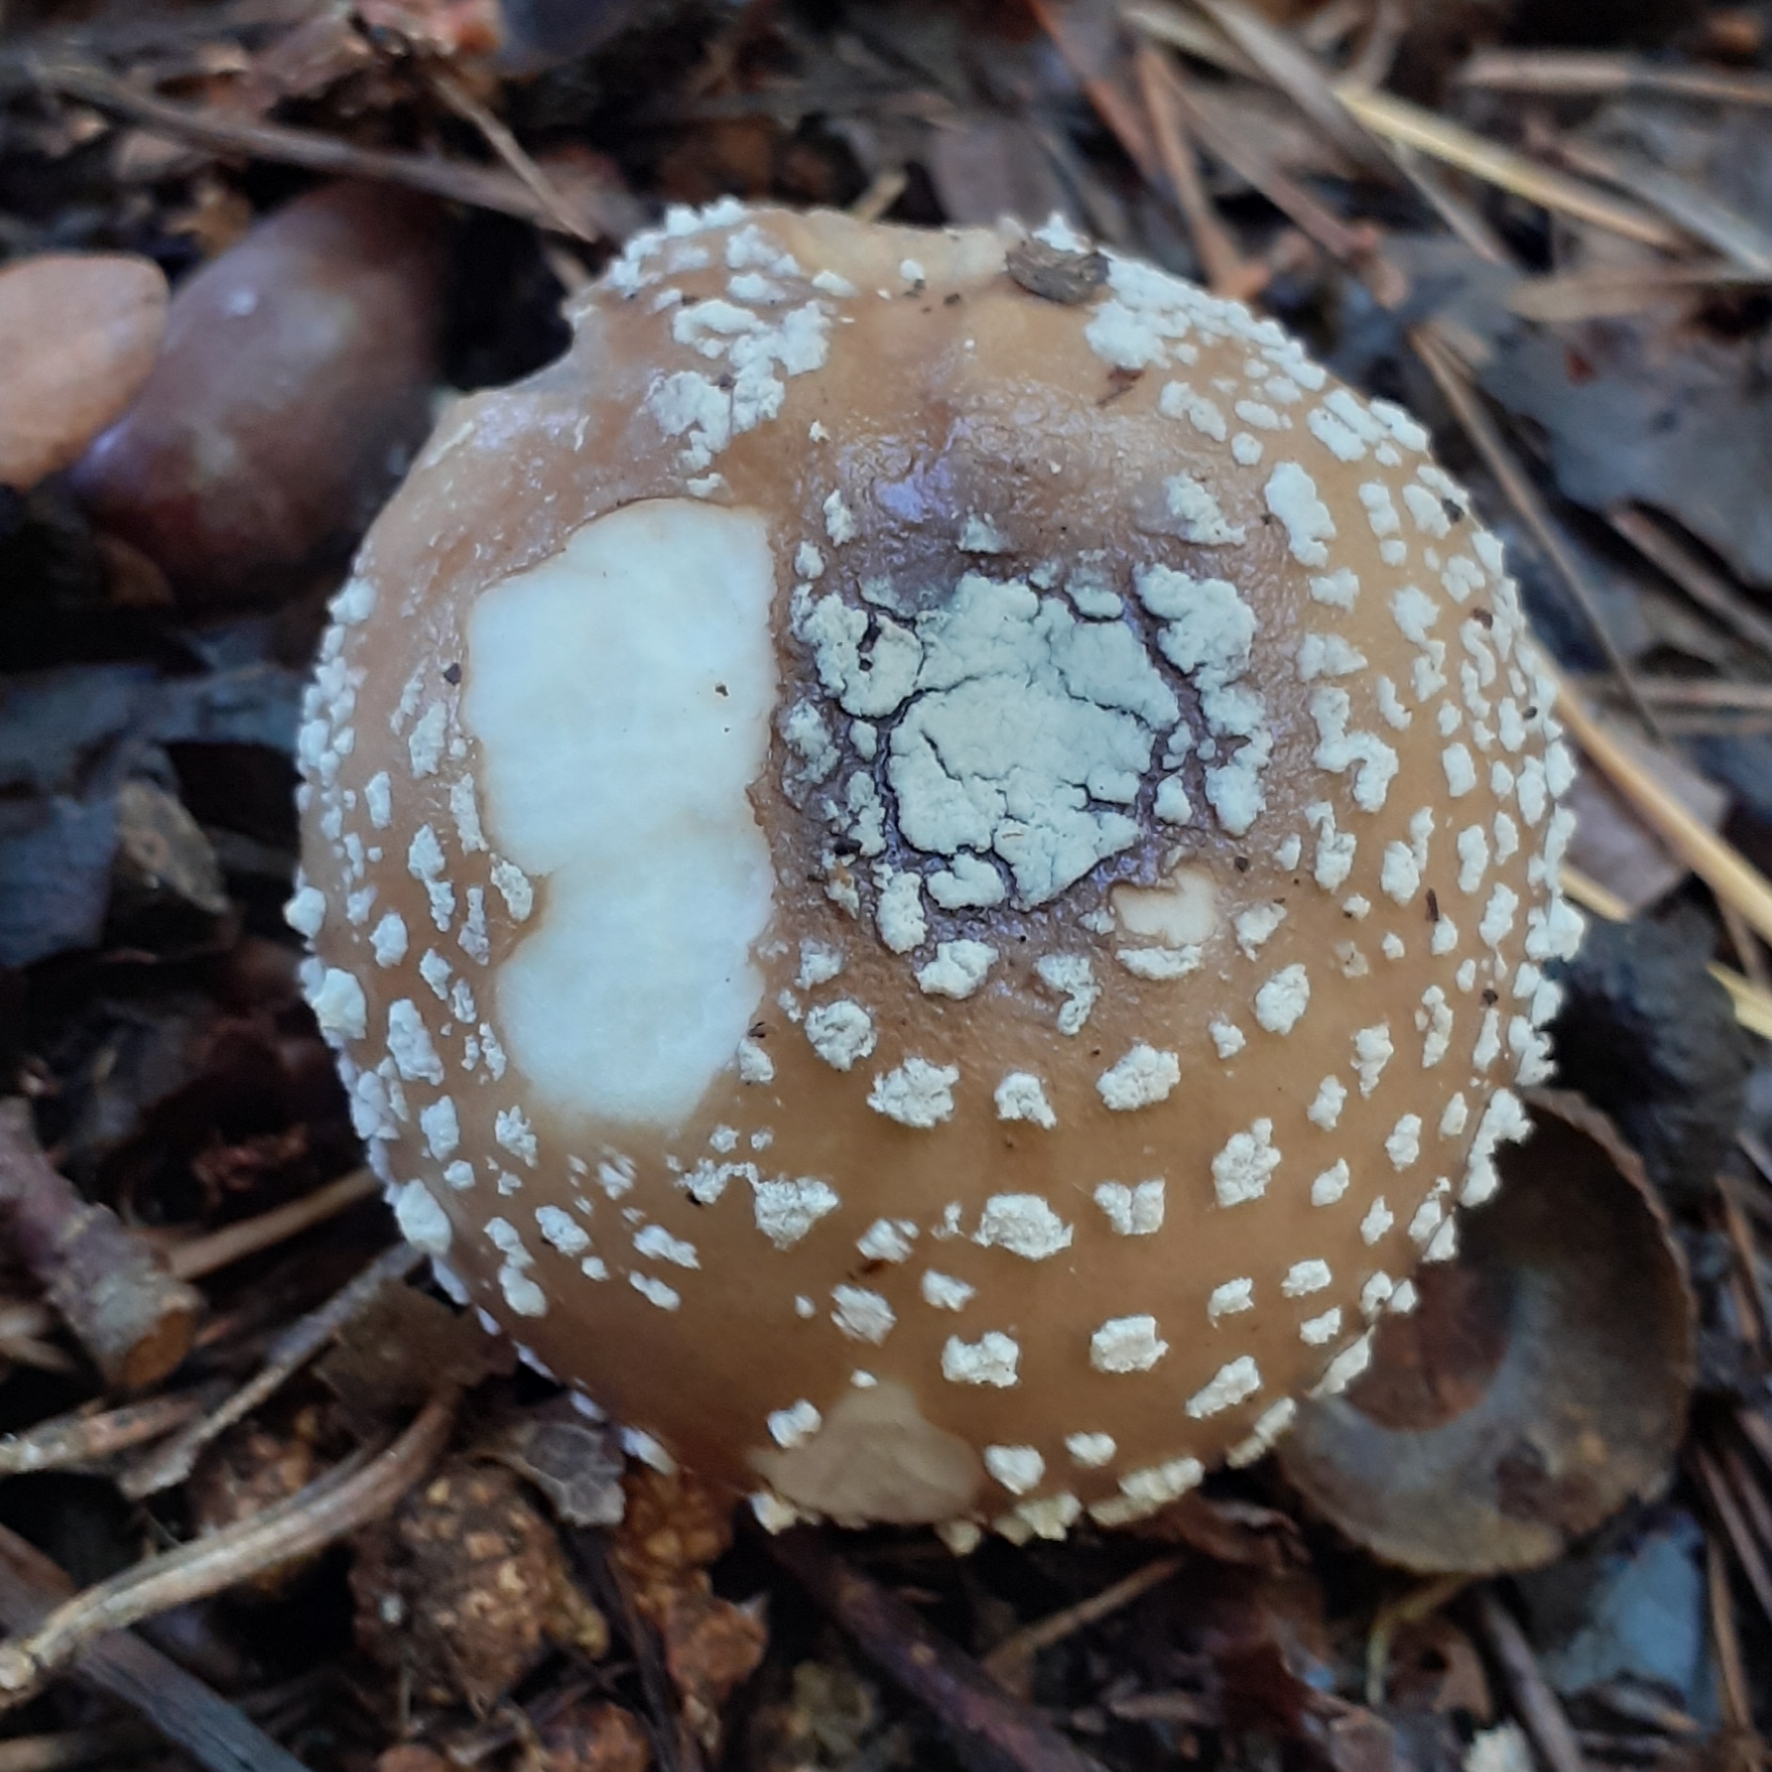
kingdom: Fungi
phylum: Basidiomycota
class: Agaricomycetes
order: Agaricales
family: Amanitaceae
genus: Amanita
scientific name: Amanita pantherina
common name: Panthercap
